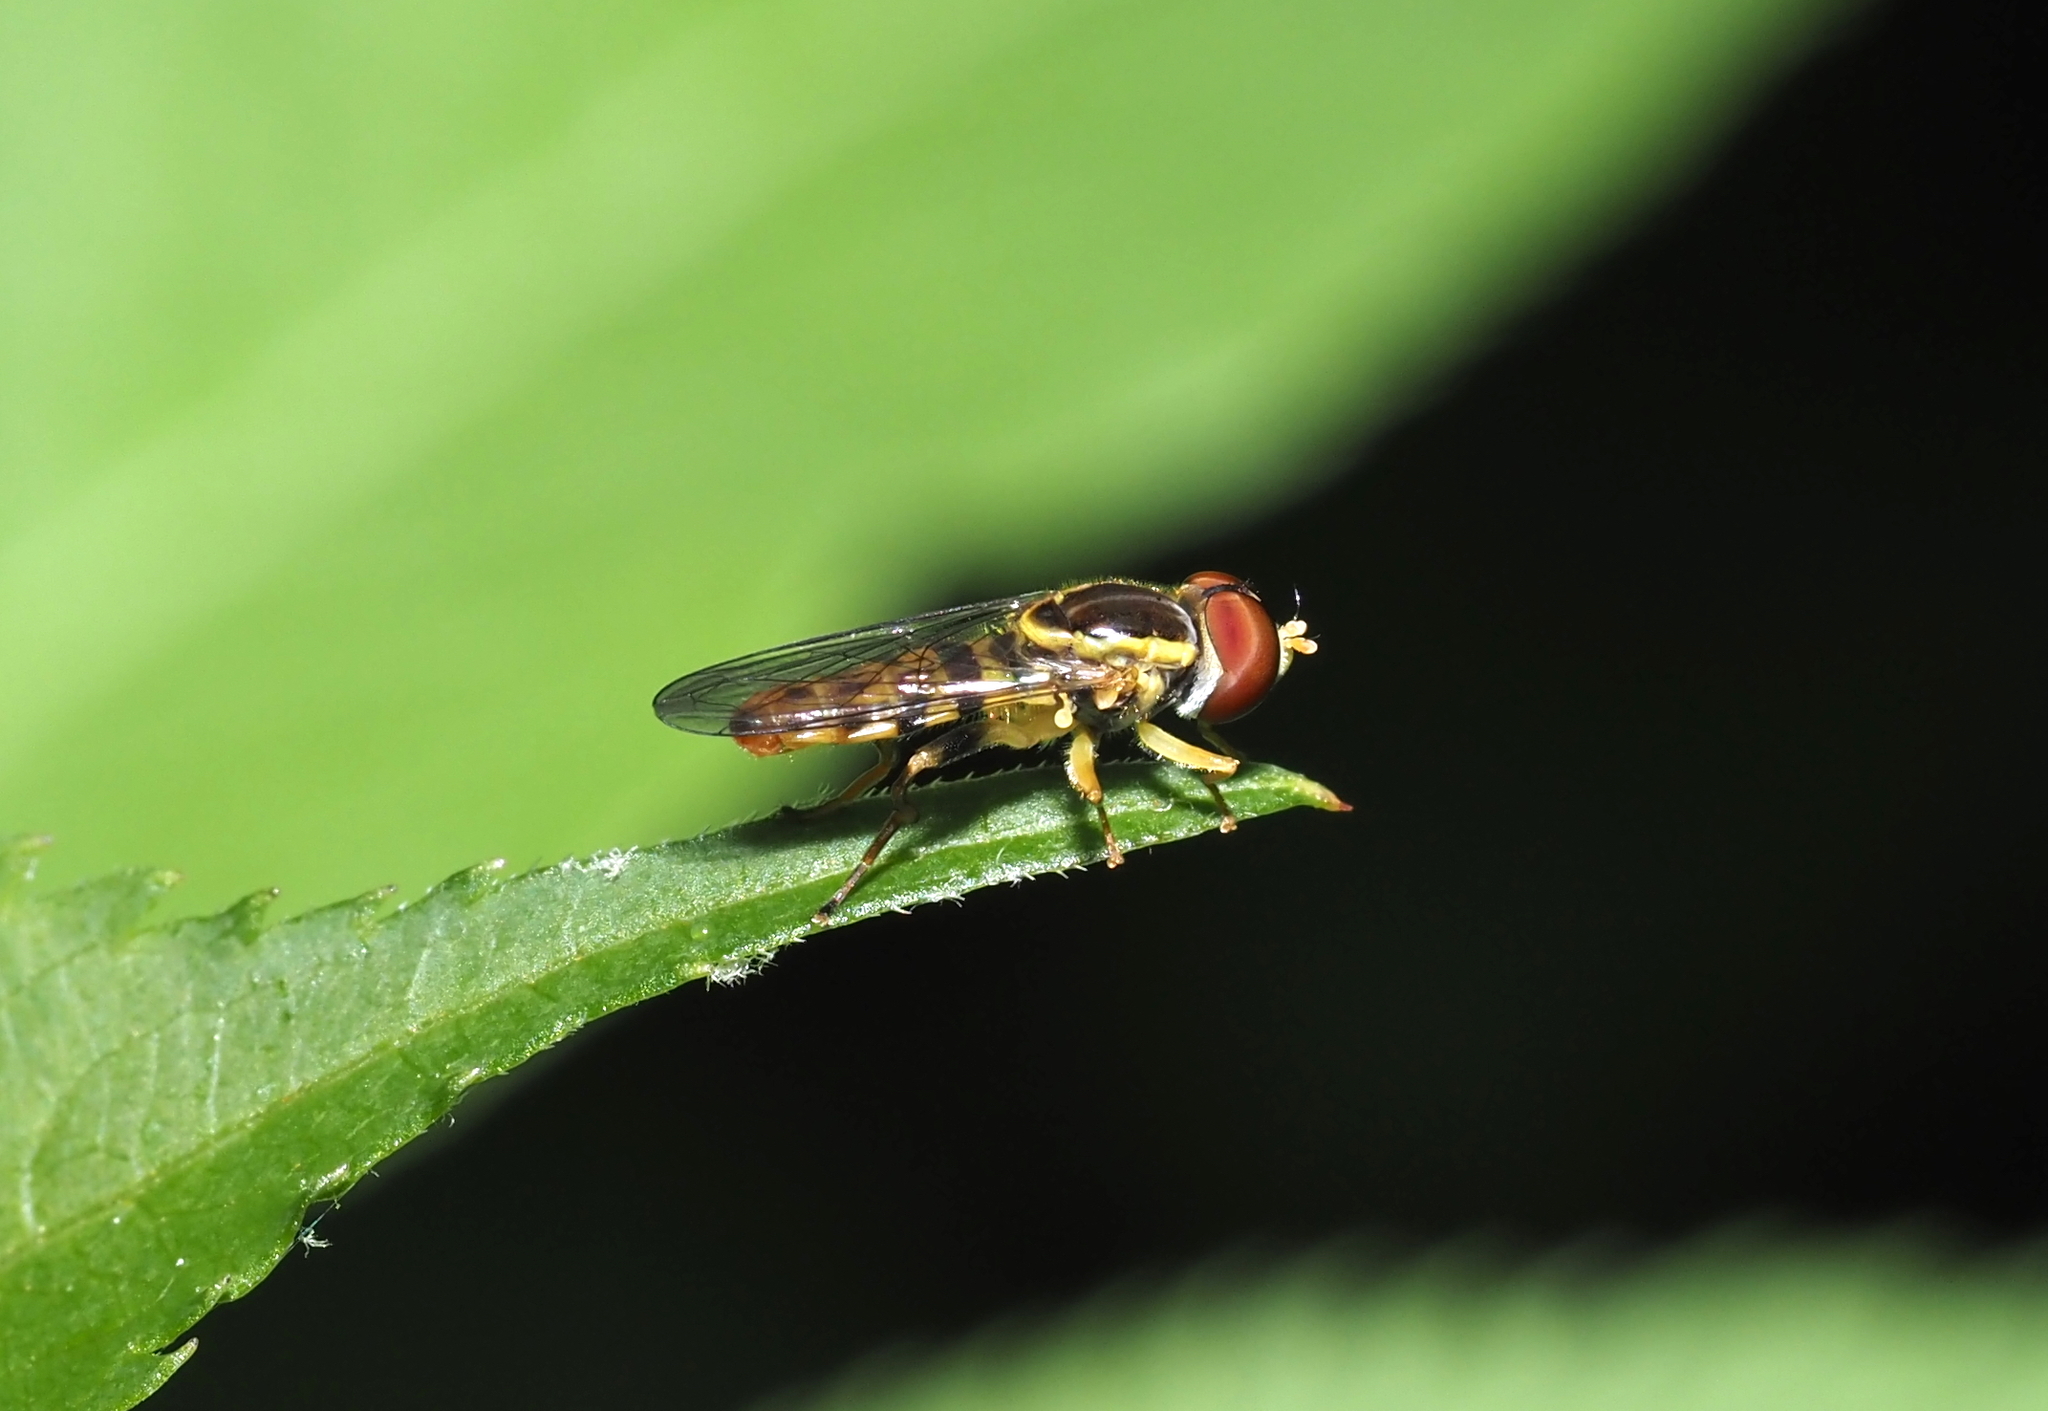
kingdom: Animalia
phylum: Arthropoda
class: Insecta
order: Diptera
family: Syrphidae
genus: Toxomerus
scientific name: Toxomerus geminatus
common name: Eastern calligrapher
